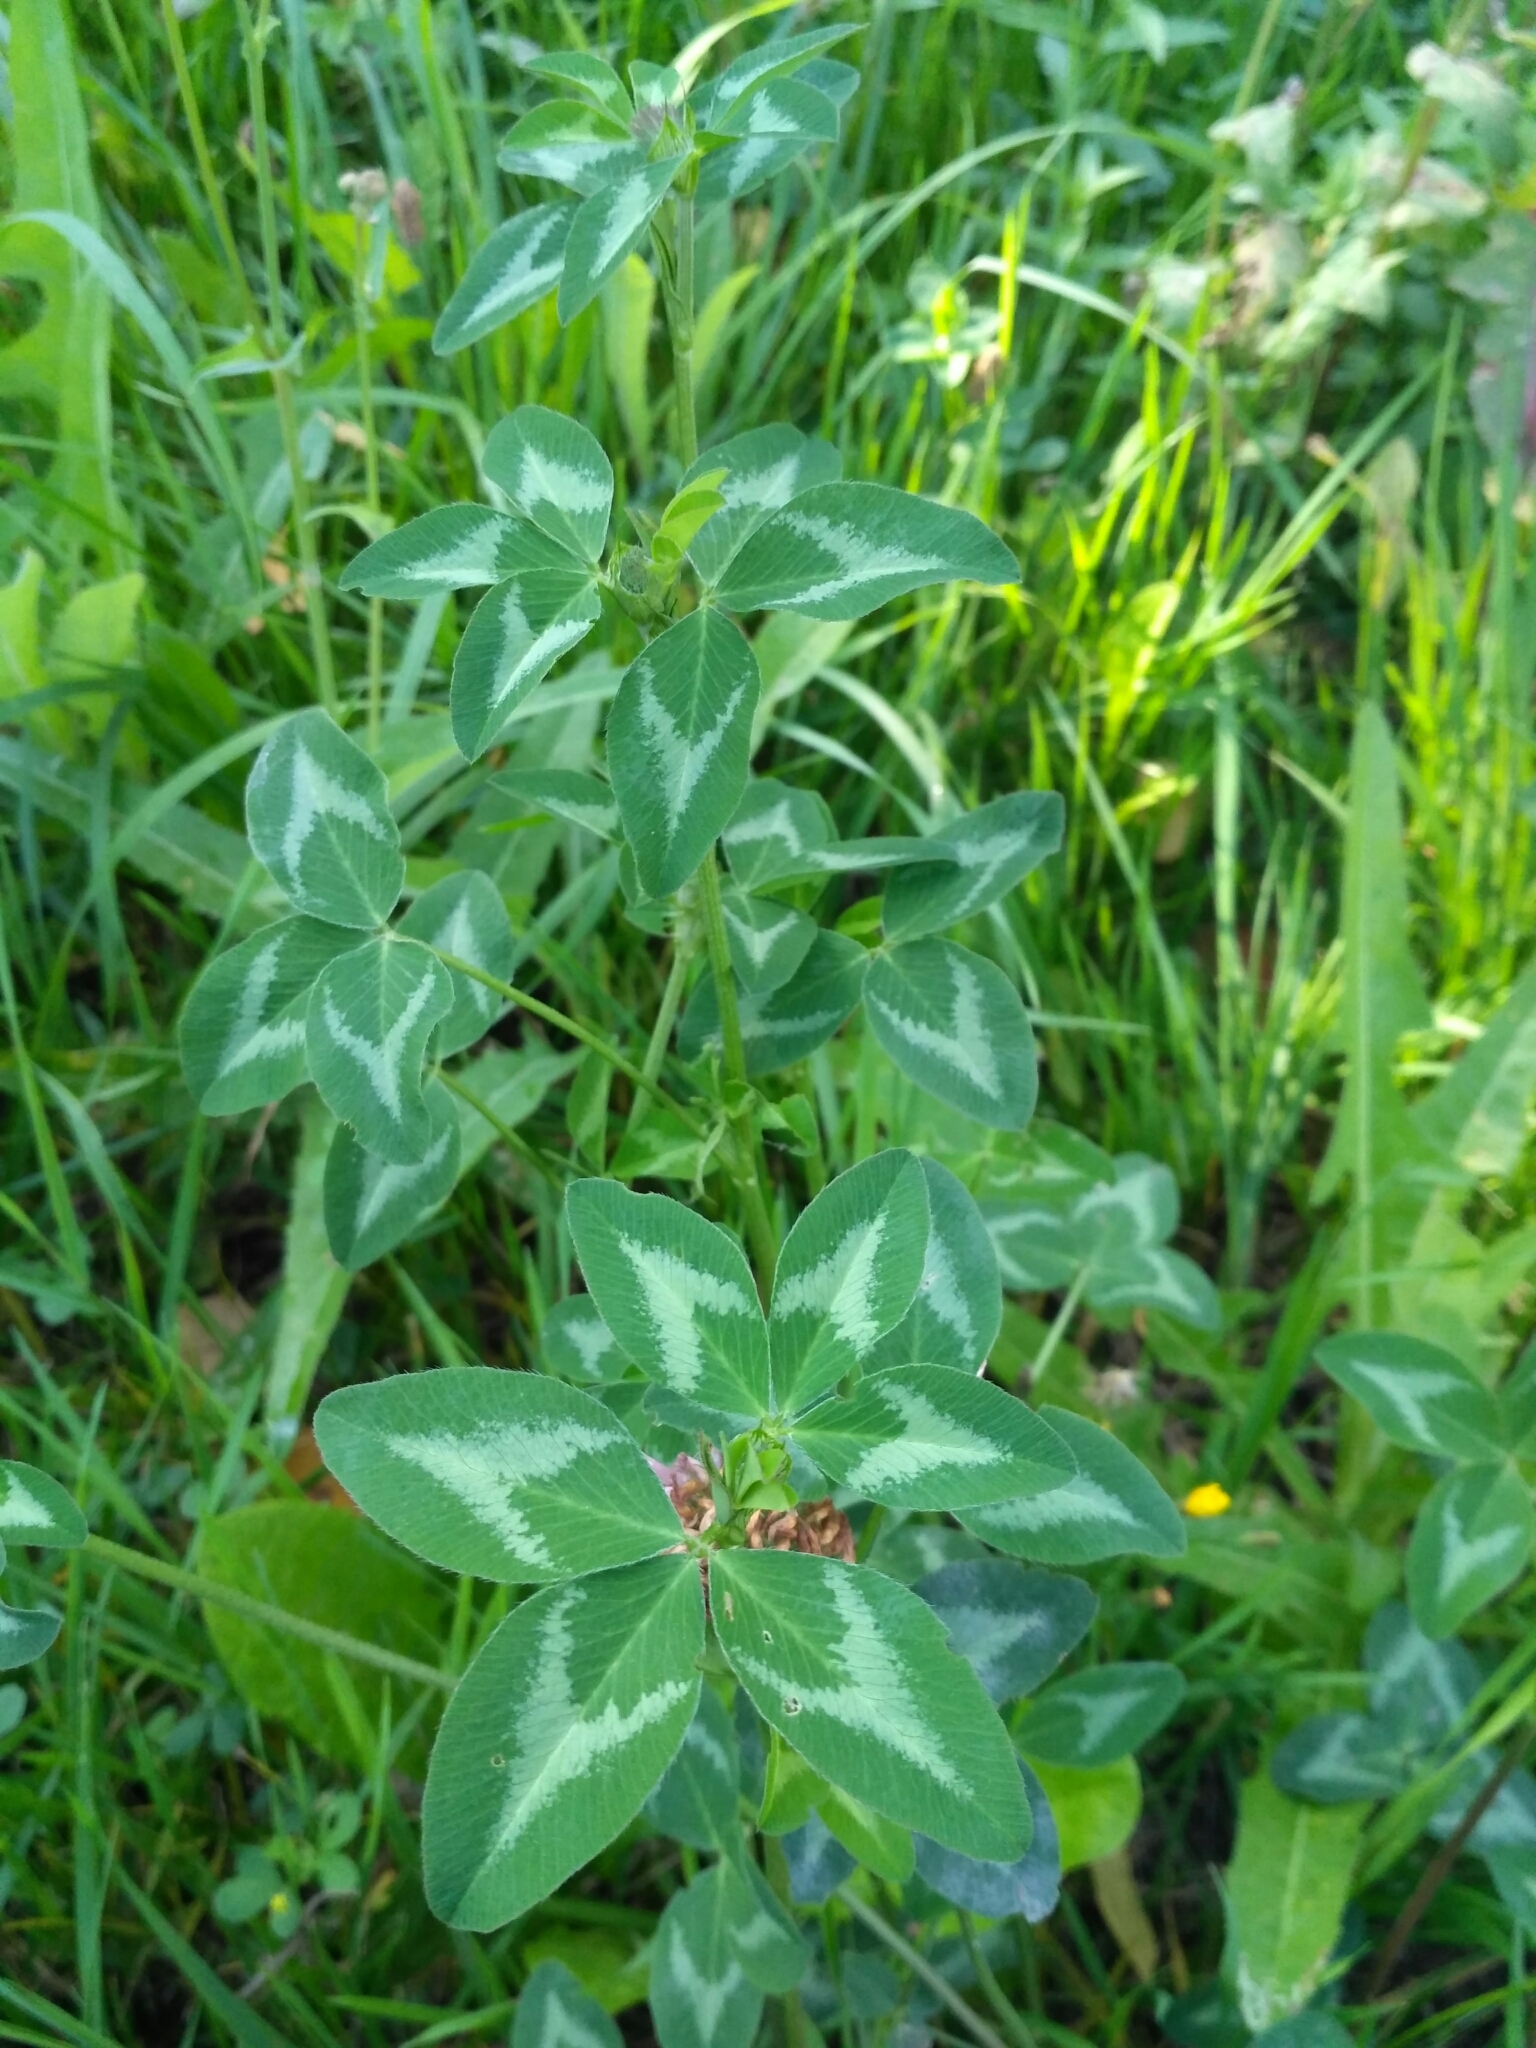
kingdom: Plantae
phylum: Tracheophyta
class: Magnoliopsida
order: Fabales
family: Fabaceae
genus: Trifolium
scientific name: Trifolium pratense
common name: Red clover
